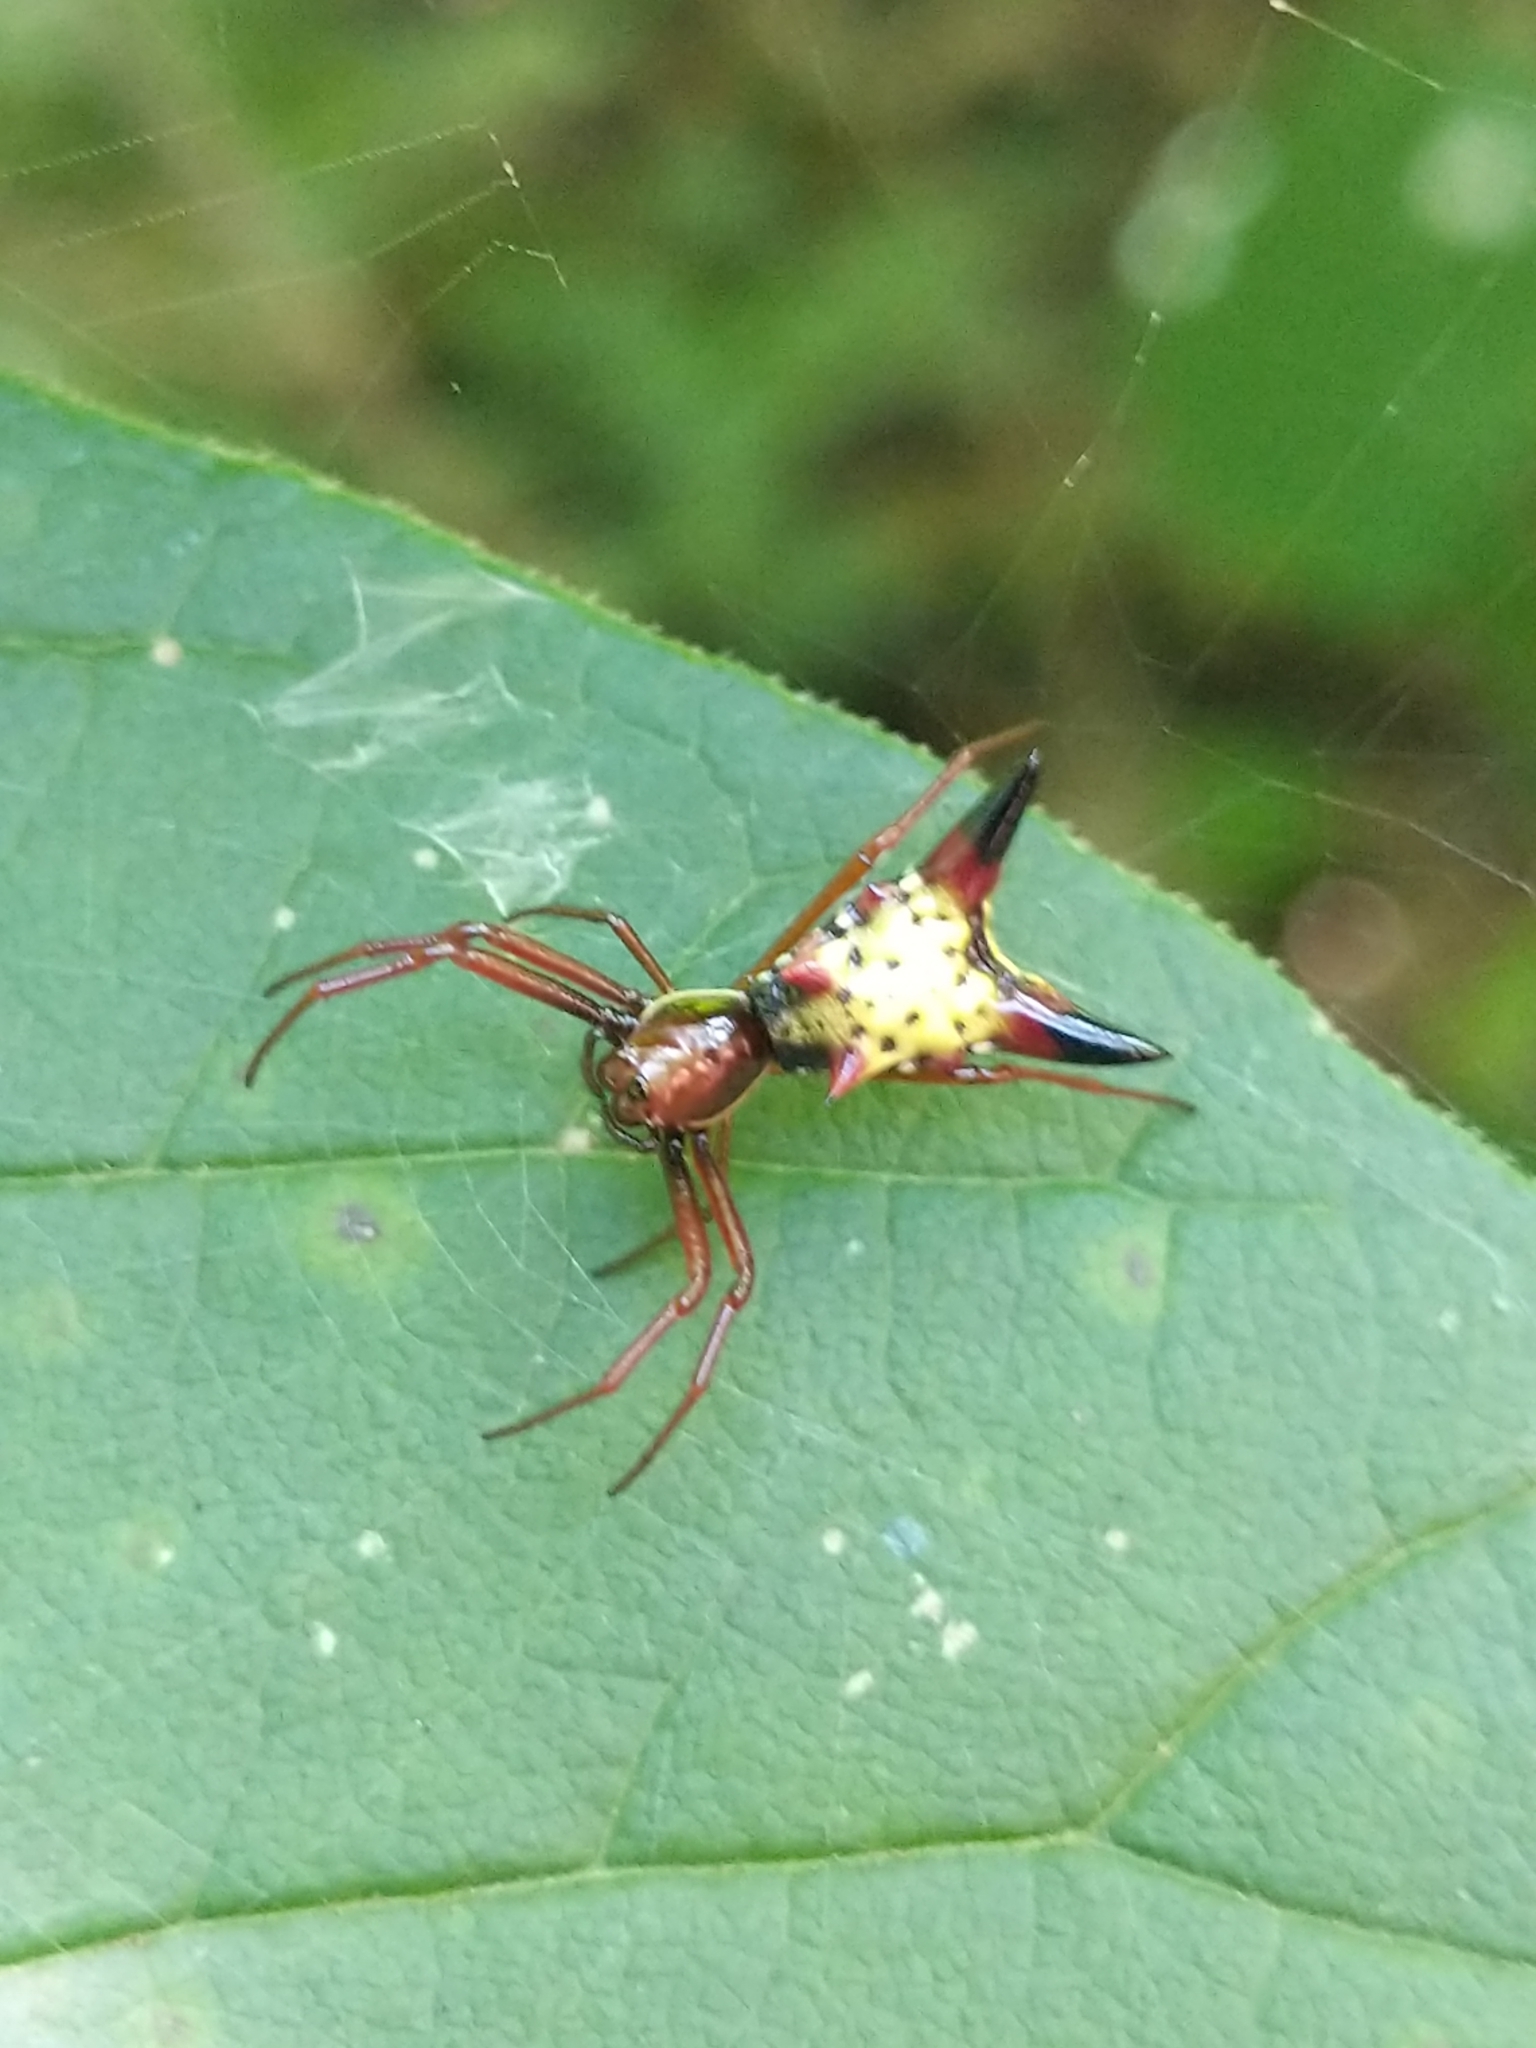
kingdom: Animalia
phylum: Arthropoda
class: Arachnida
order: Araneae
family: Araneidae
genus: Micrathena
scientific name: Micrathena sagittata
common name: Orb weavers
